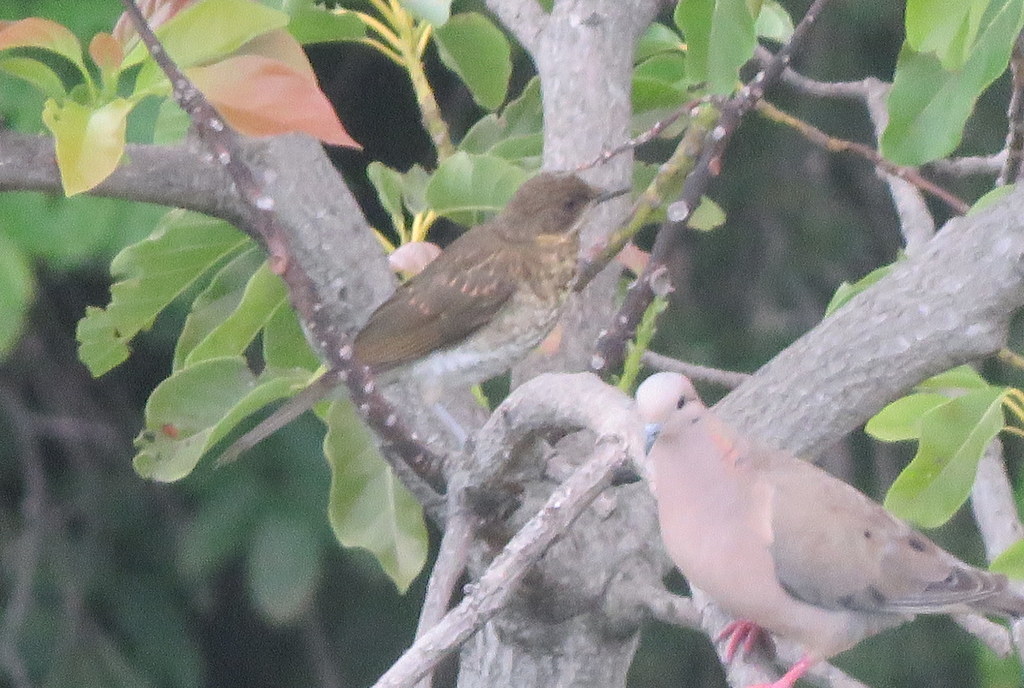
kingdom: Animalia
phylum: Chordata
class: Aves
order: Passeriformes
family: Turdidae
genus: Turdus
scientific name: Turdus amaurochalinus
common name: Creamy-bellied thrush
